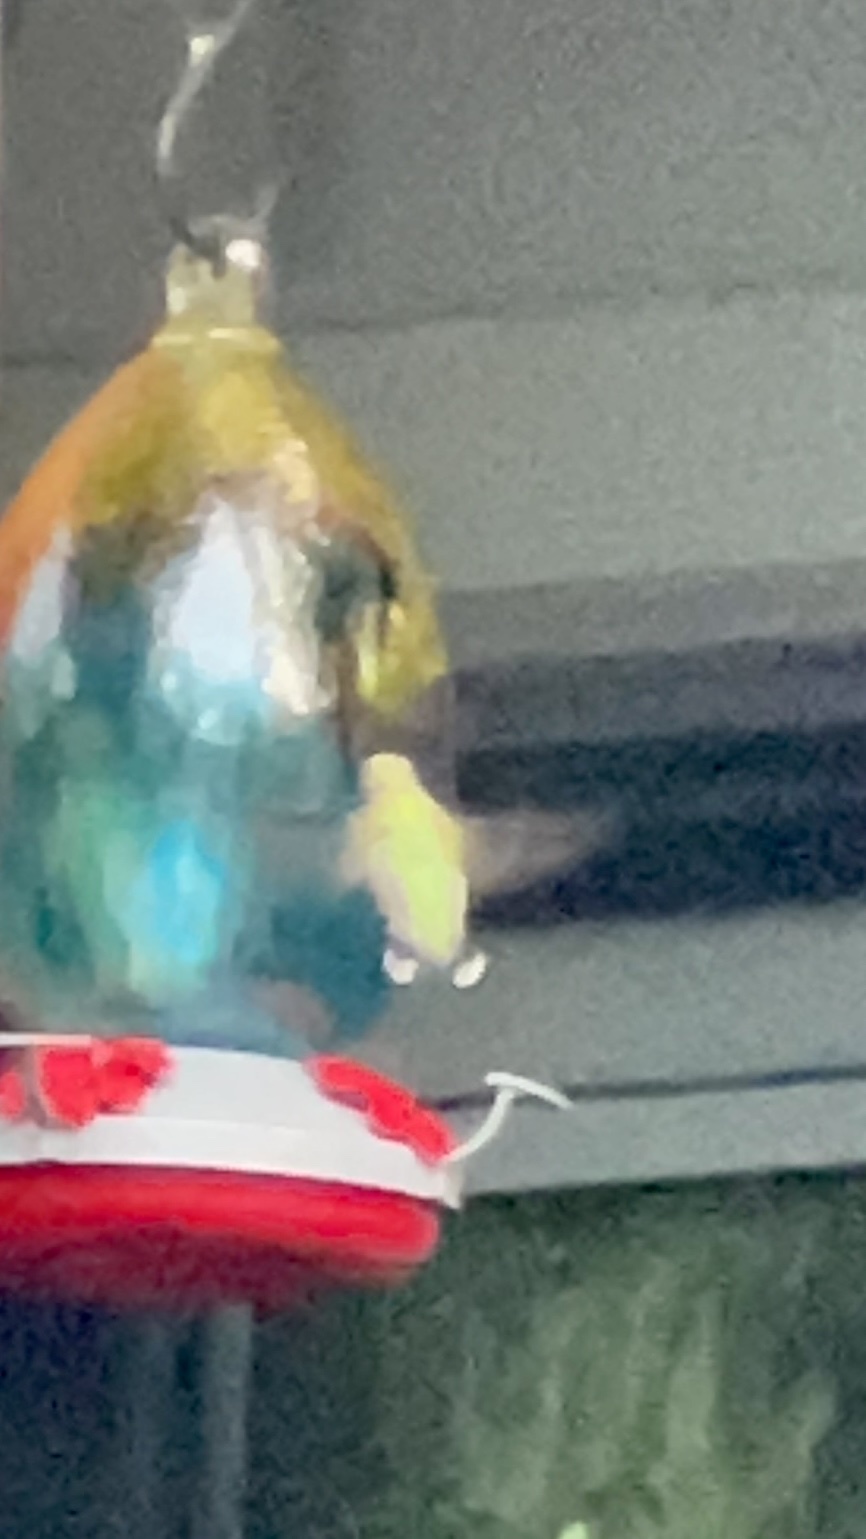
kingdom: Animalia
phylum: Chordata
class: Aves
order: Apodiformes
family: Trochilidae
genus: Archilochus
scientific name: Archilochus colubris
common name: Ruby-throated hummingbird
